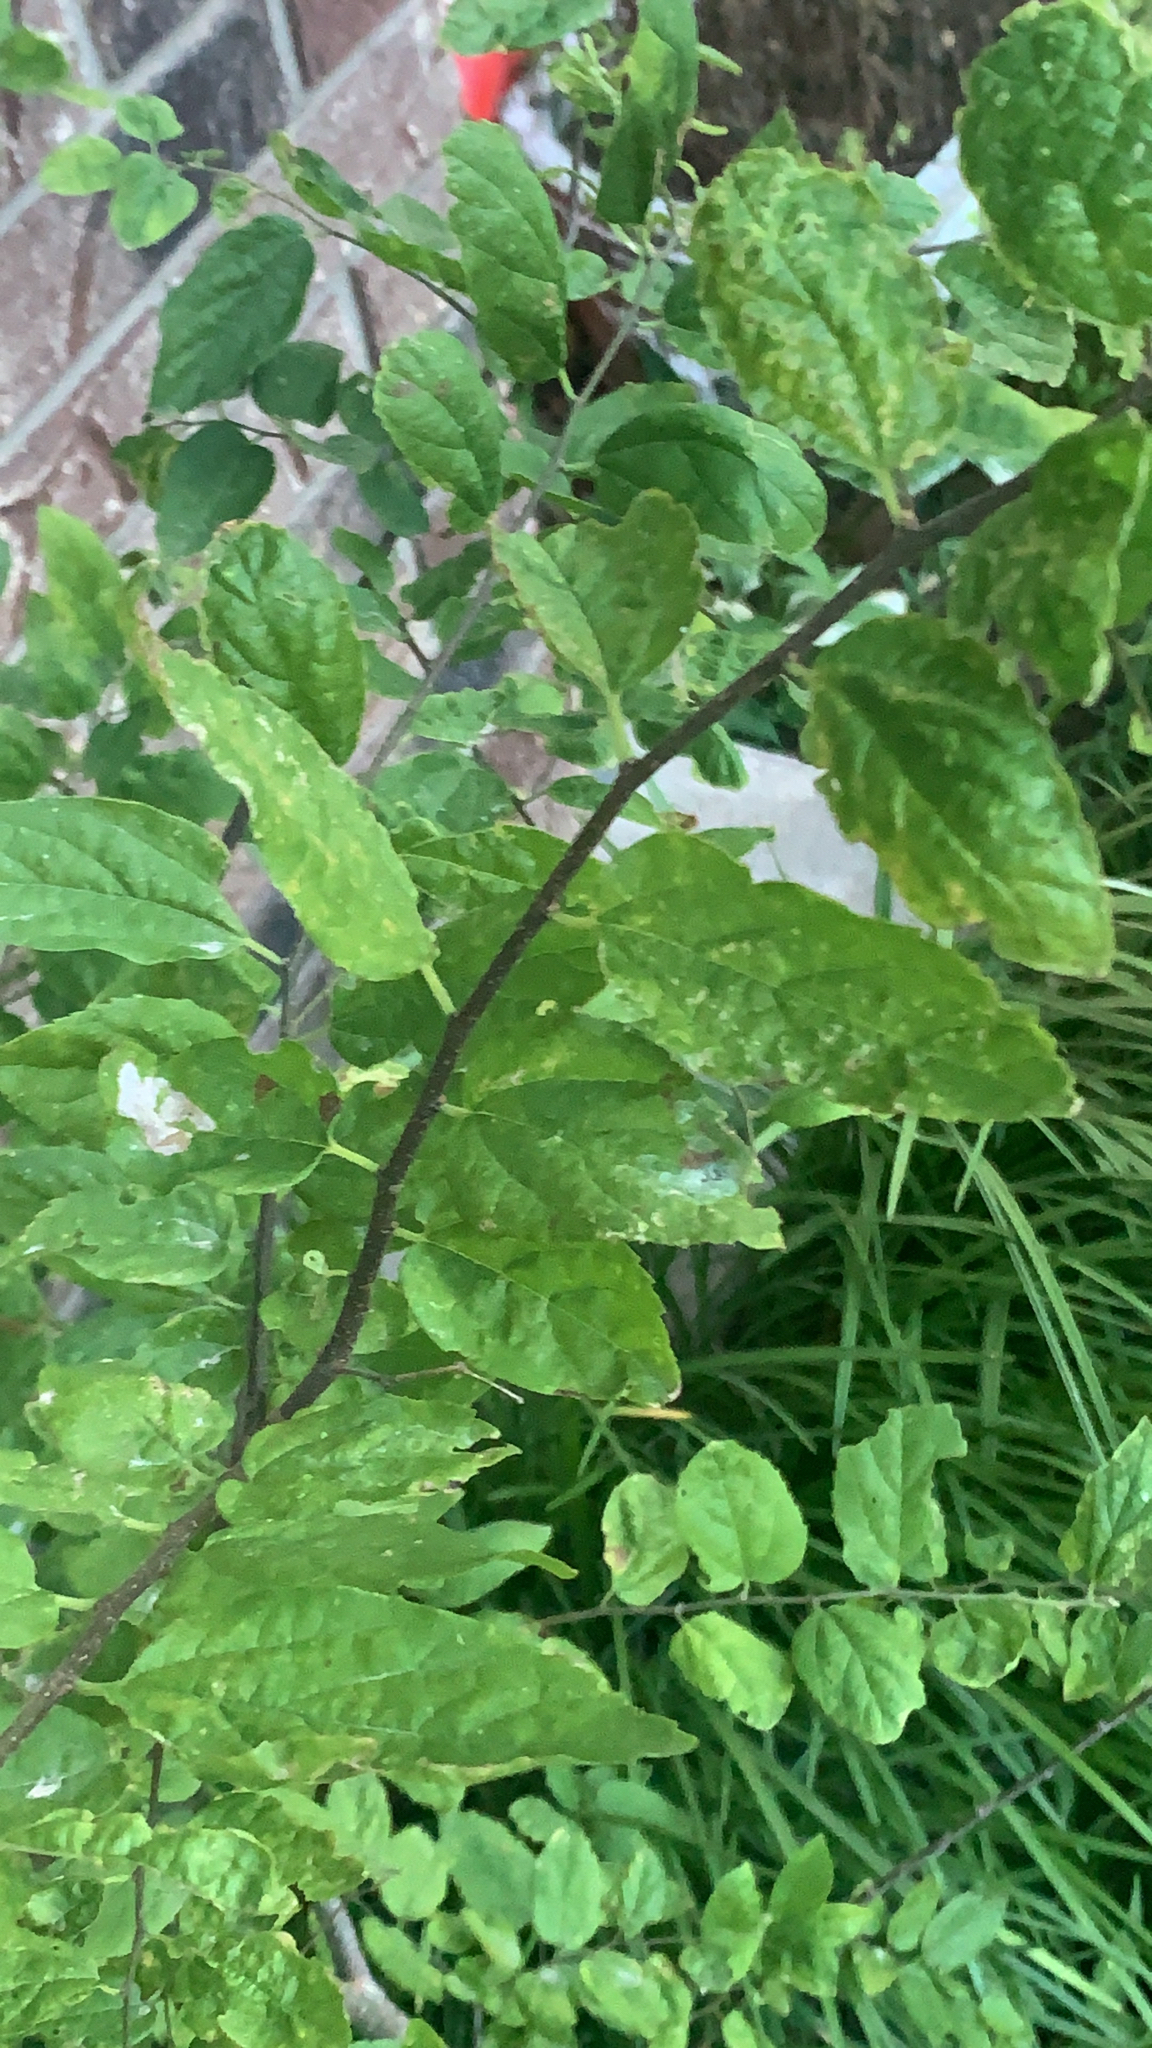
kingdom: Plantae
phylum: Tracheophyta
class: Magnoliopsida
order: Rosales
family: Cannabaceae
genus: Celtis
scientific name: Celtis laevigata
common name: Sugarberry
